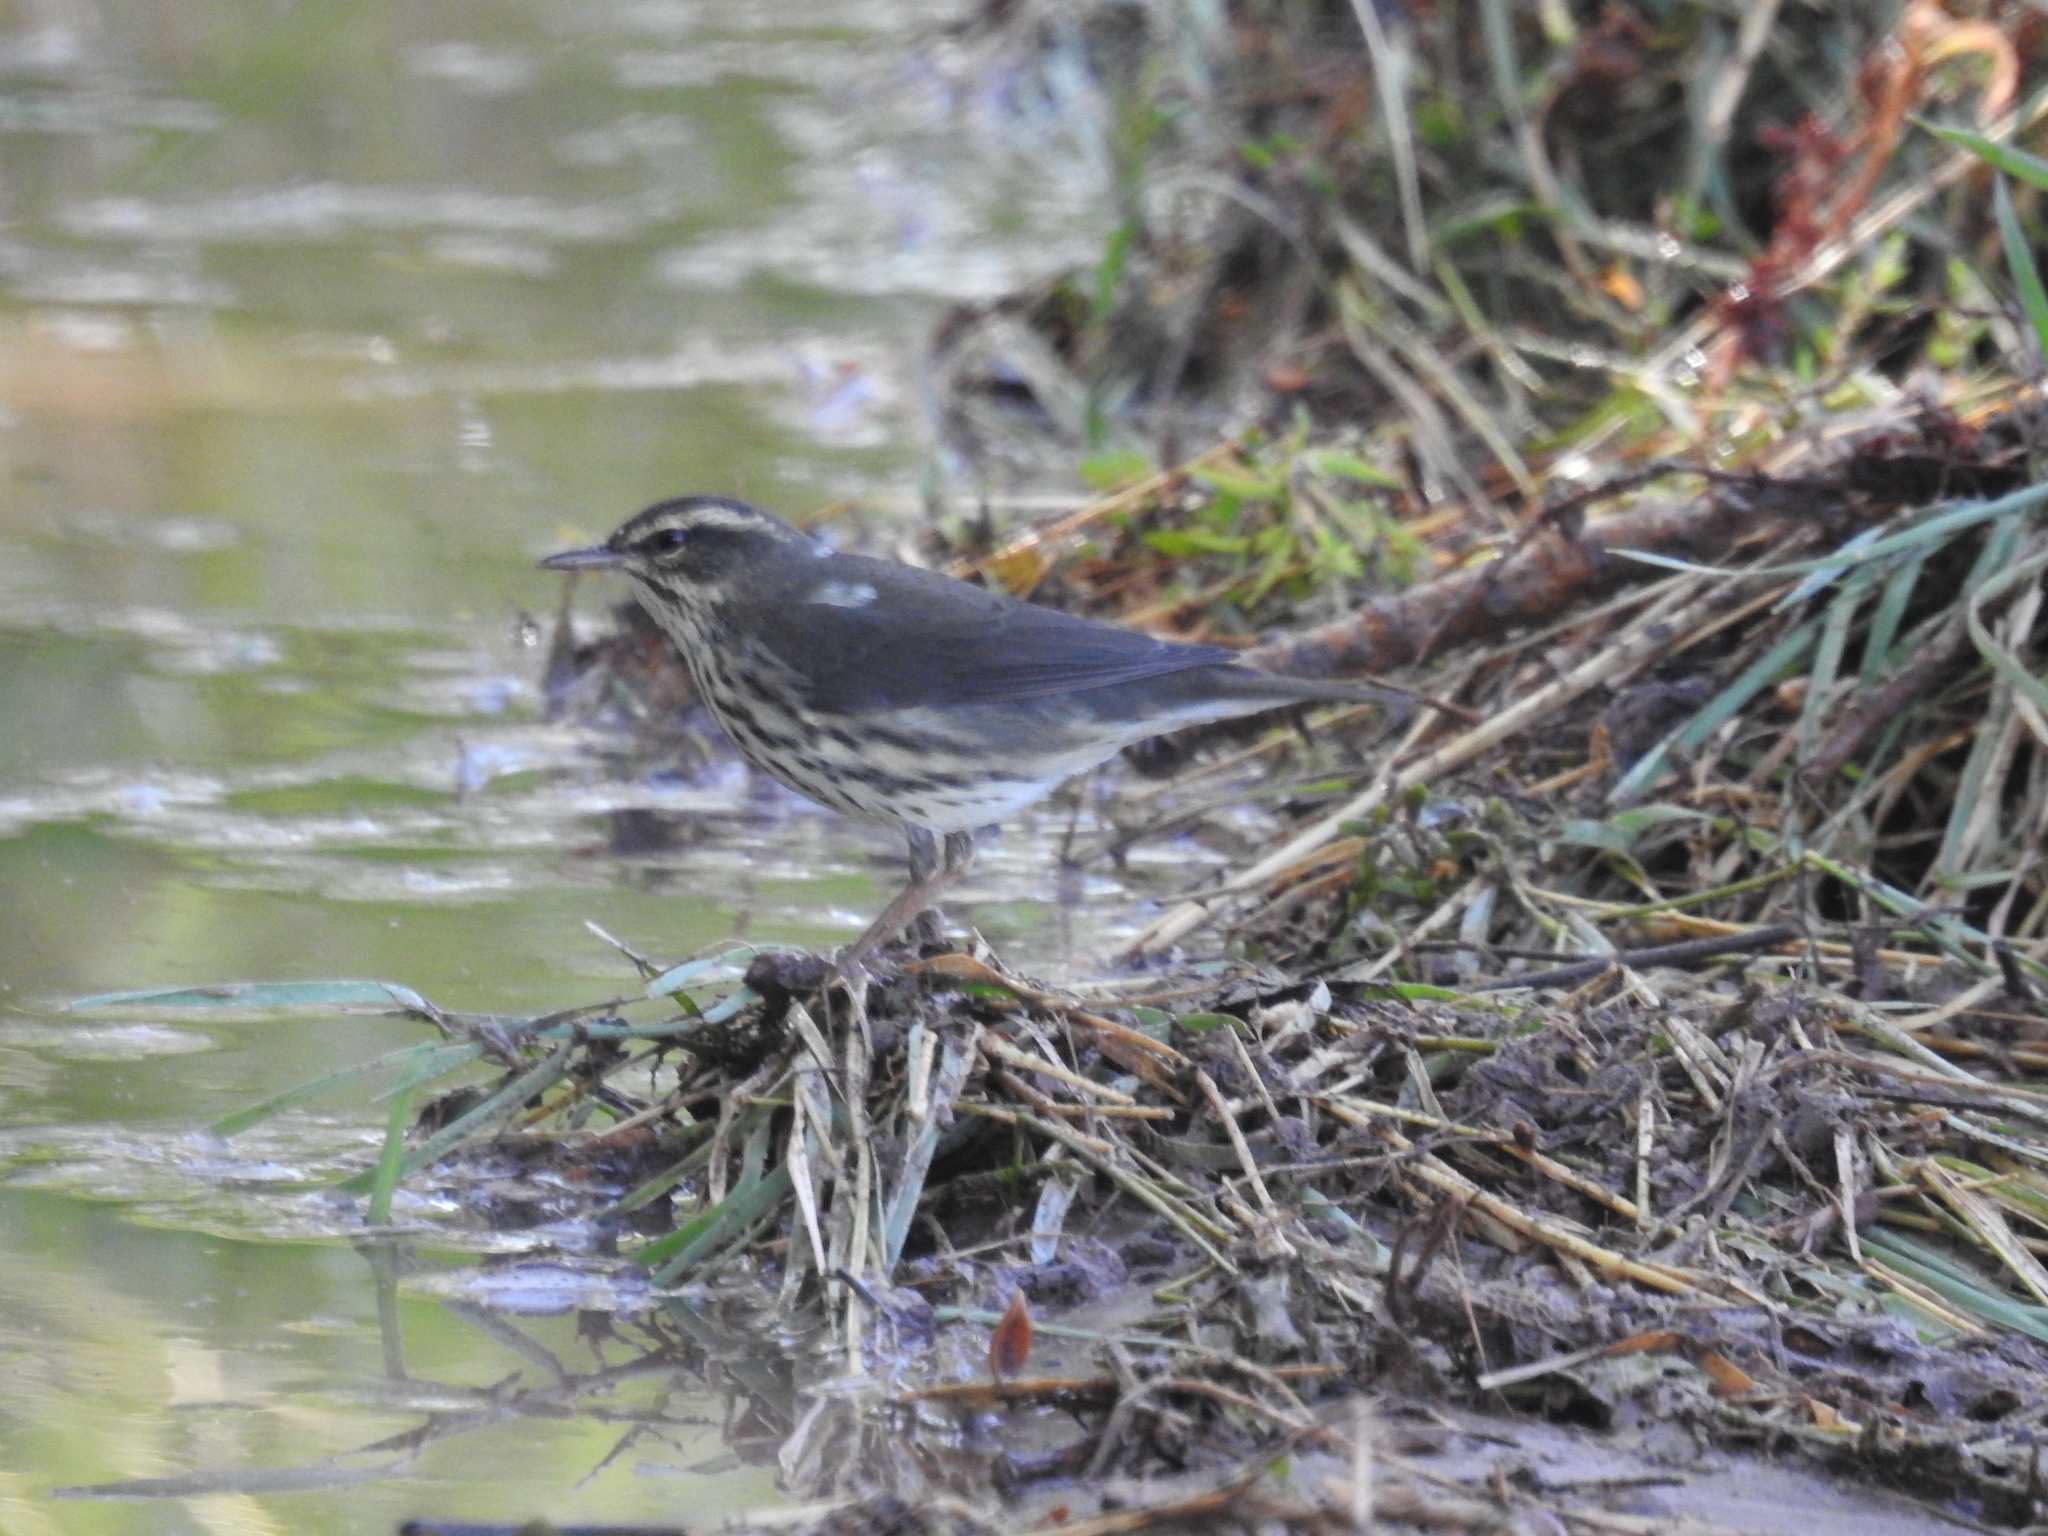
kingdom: Animalia
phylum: Chordata
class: Aves
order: Passeriformes
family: Parulidae
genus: Parkesia
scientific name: Parkesia noveboracensis
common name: Northern waterthrush
